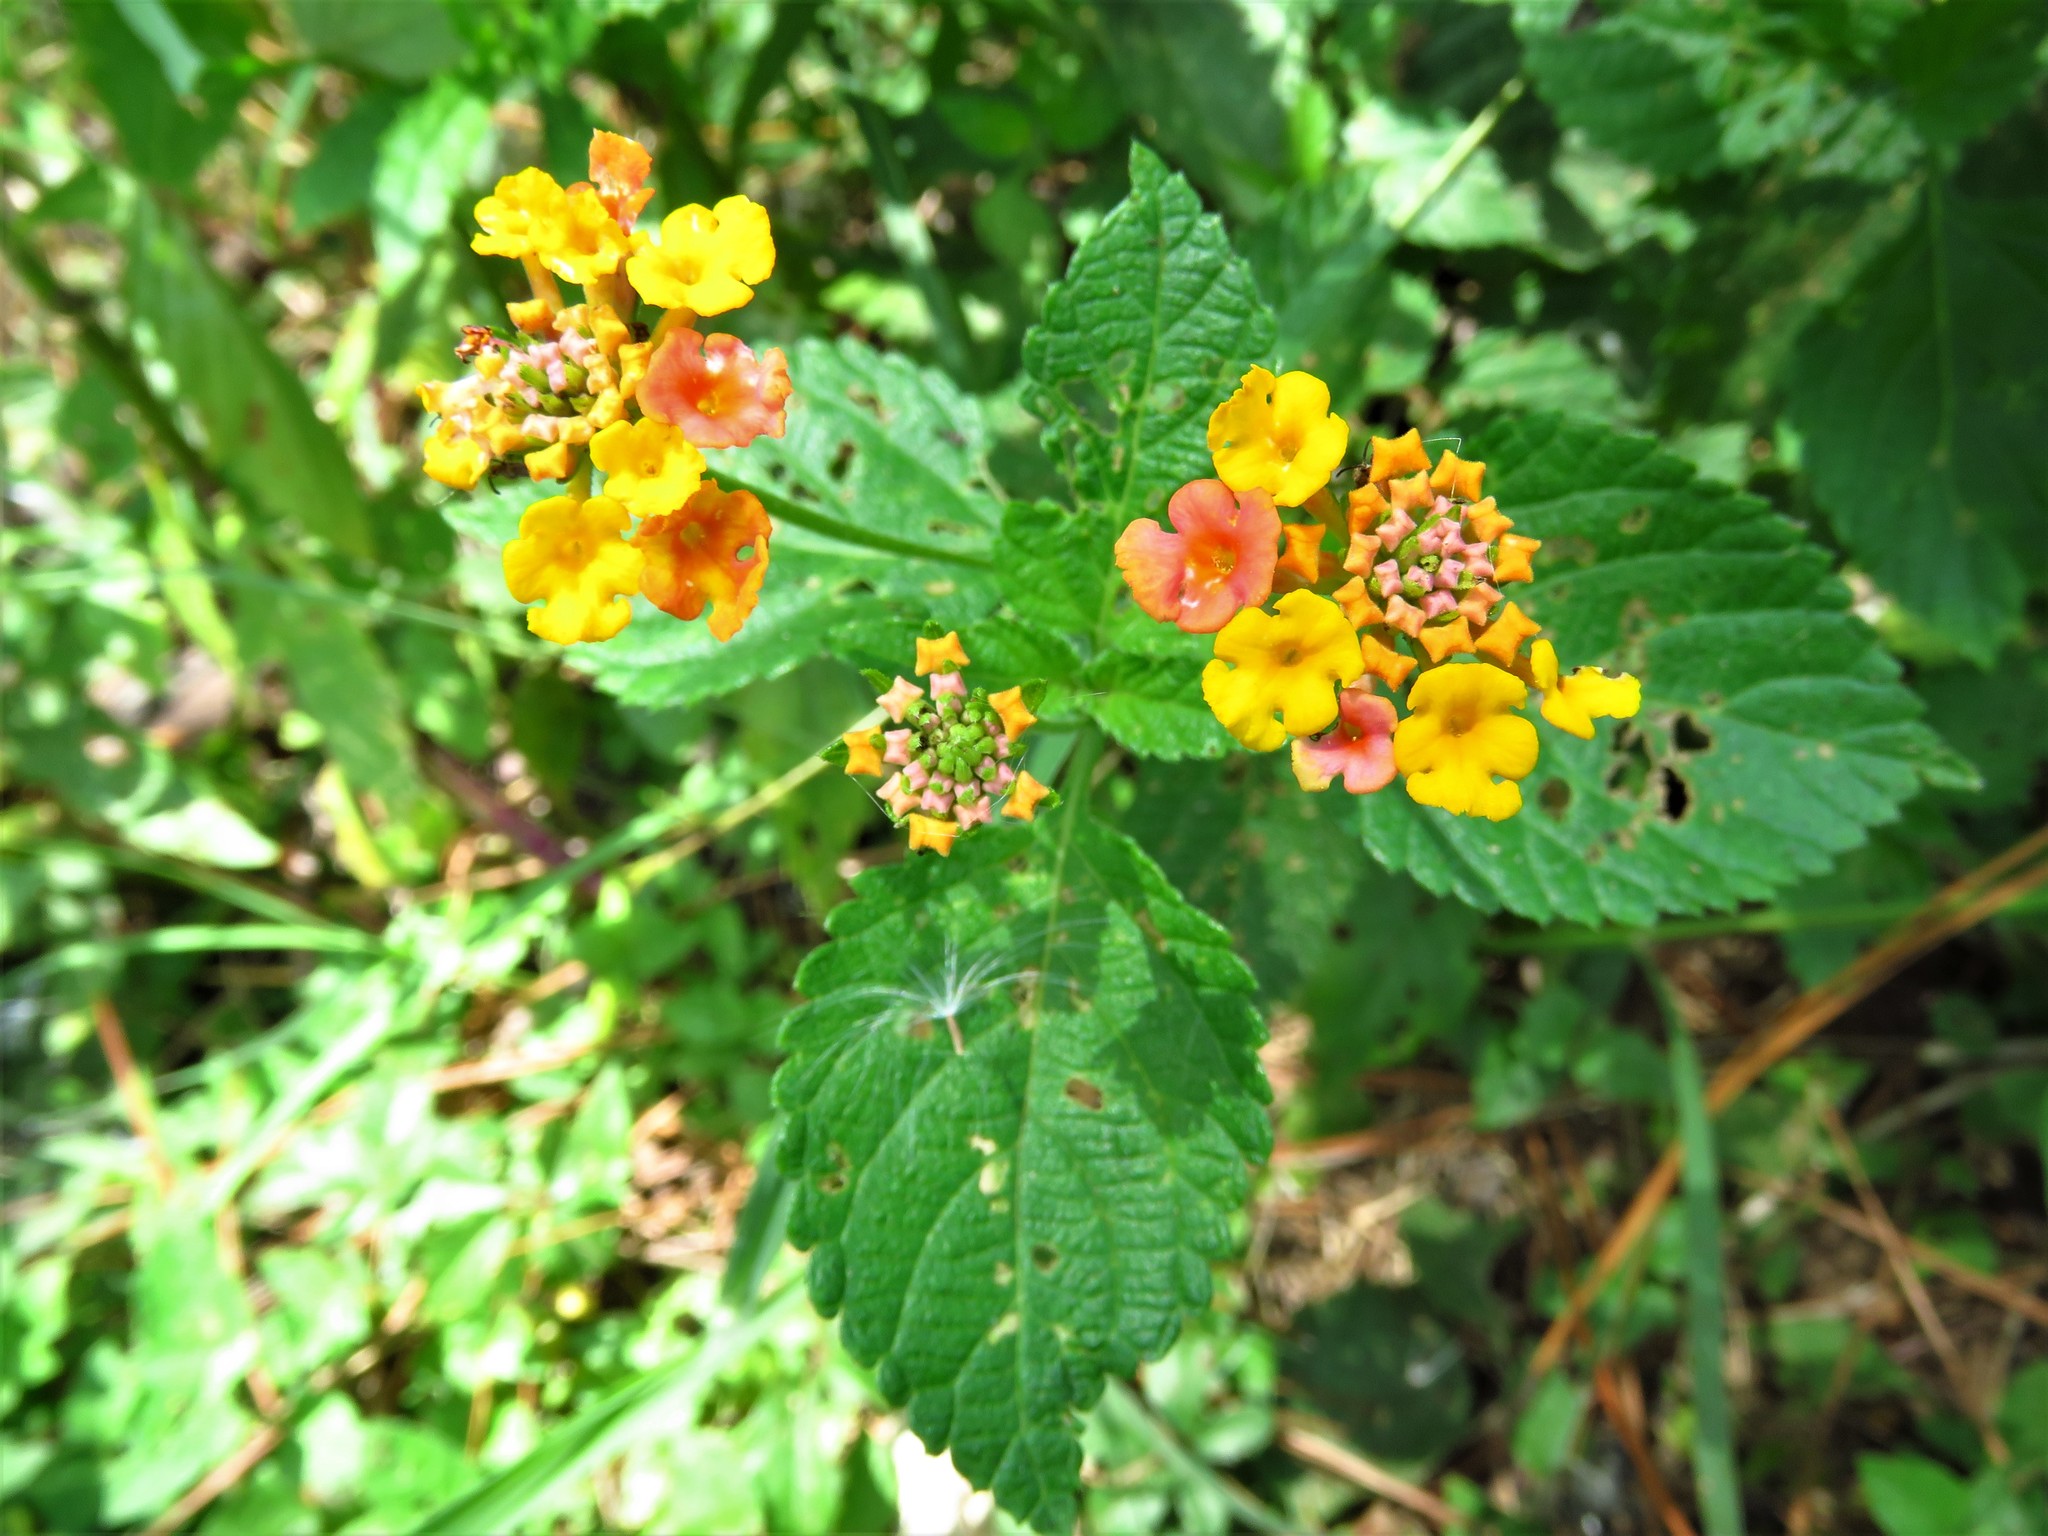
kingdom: Plantae
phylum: Tracheophyta
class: Magnoliopsida
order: Lamiales
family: Verbenaceae
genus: Lantana
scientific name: Lantana camara
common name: Lantana
